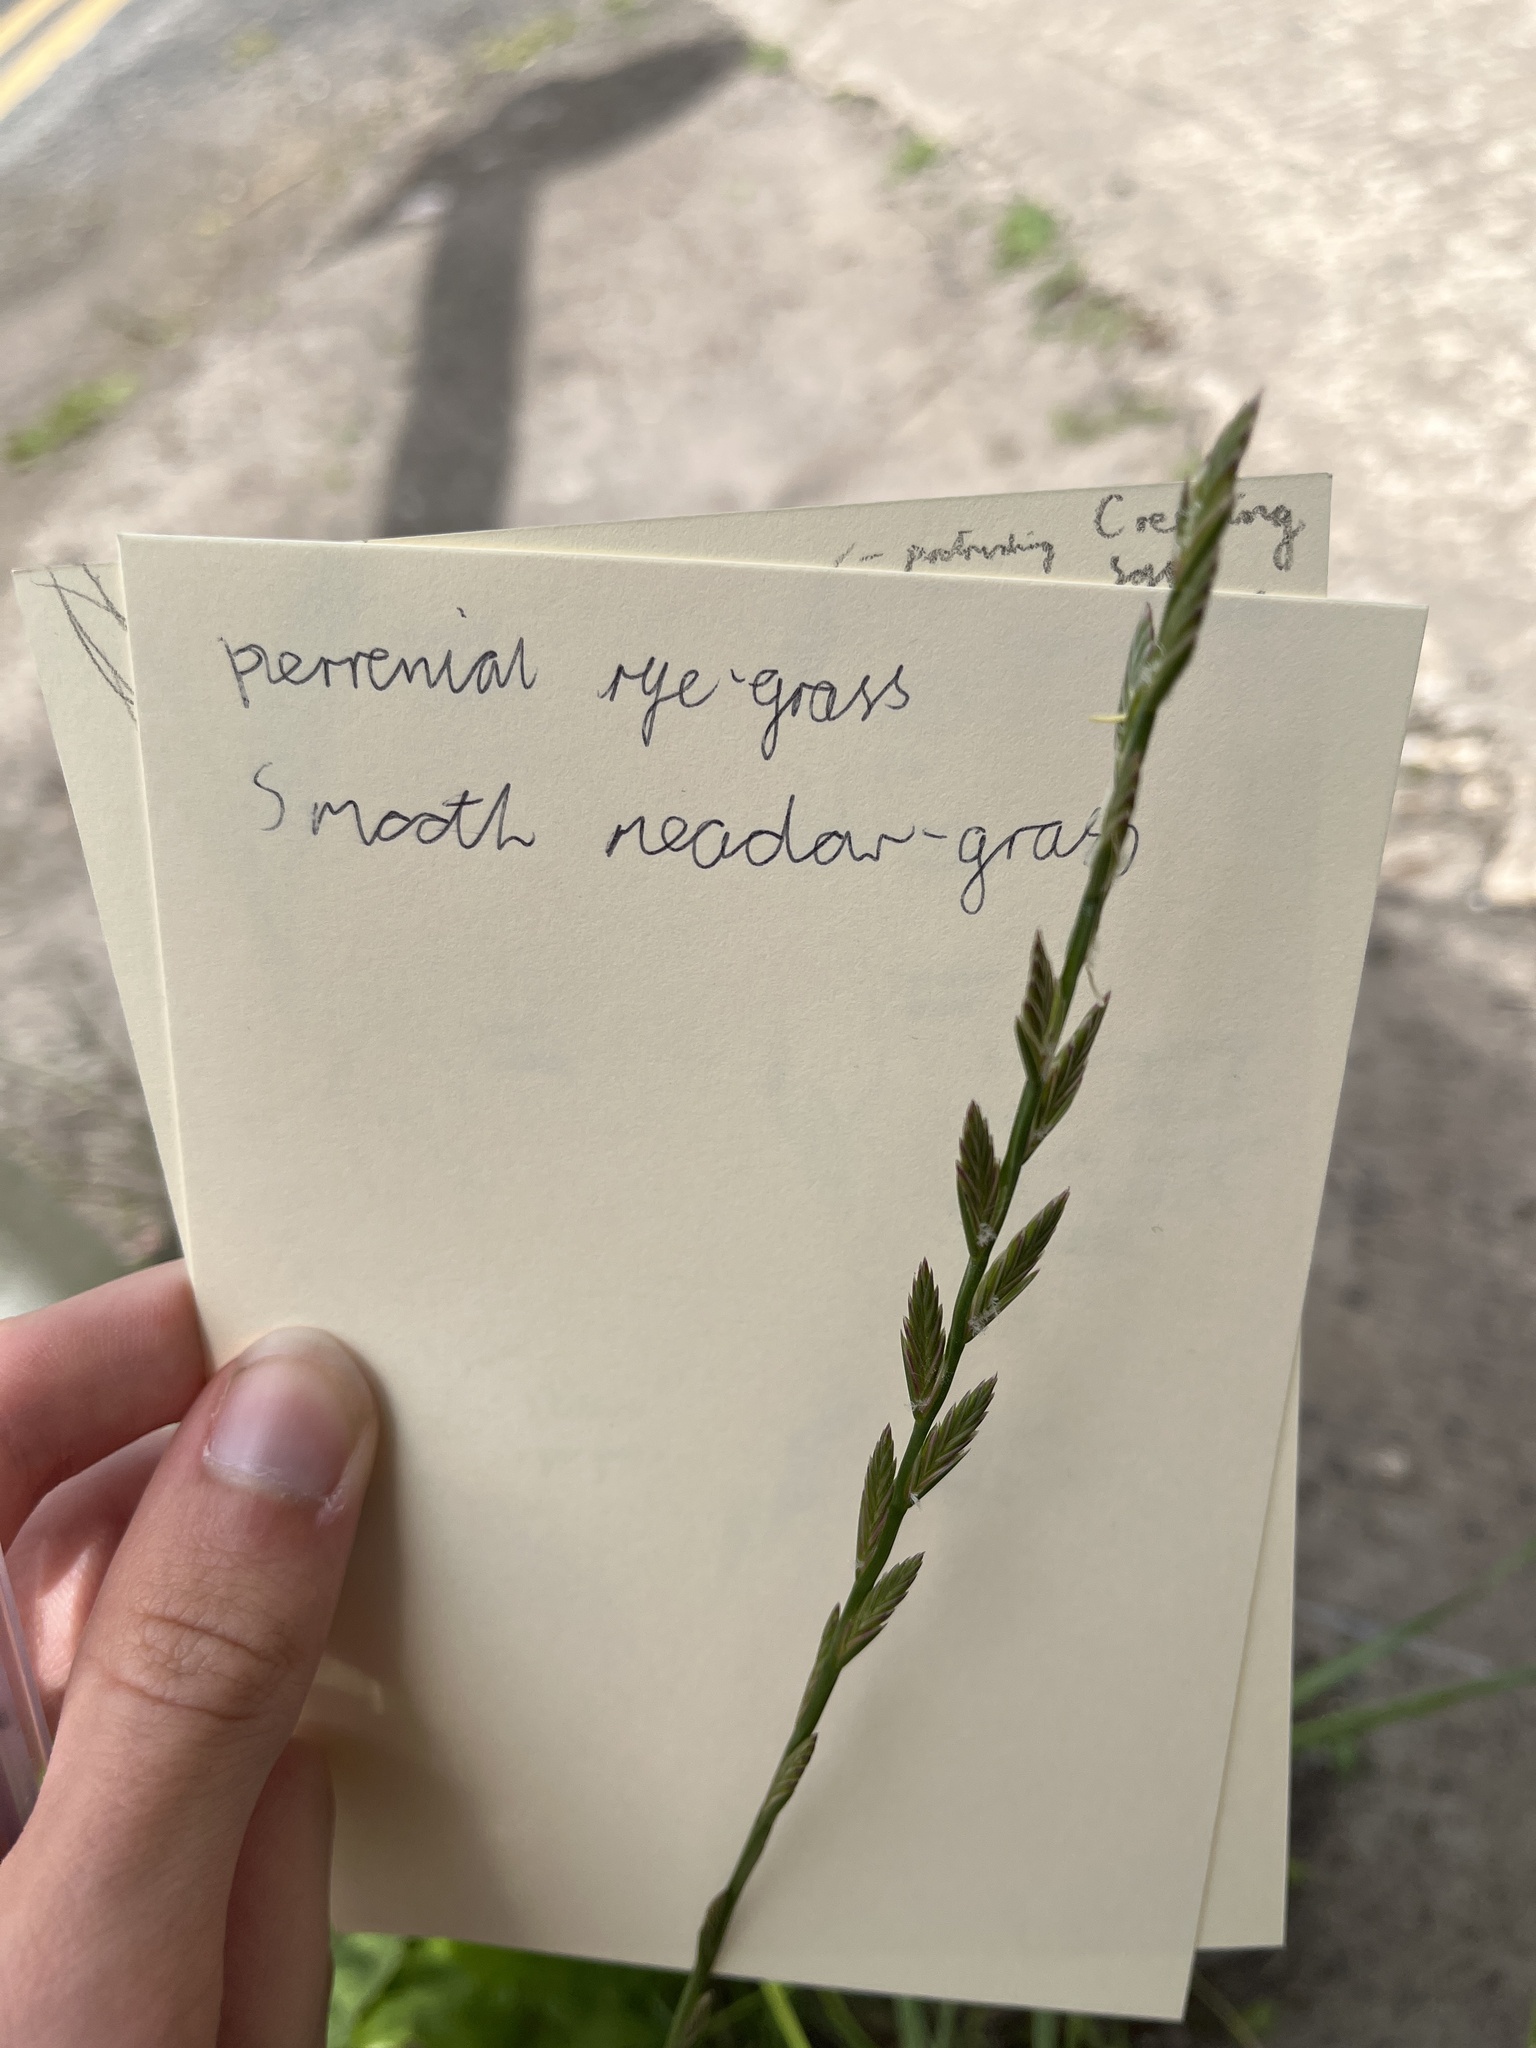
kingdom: Plantae
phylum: Tracheophyta
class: Liliopsida
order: Poales
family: Poaceae
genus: Lolium
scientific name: Lolium perenne
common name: Perennial ryegrass
